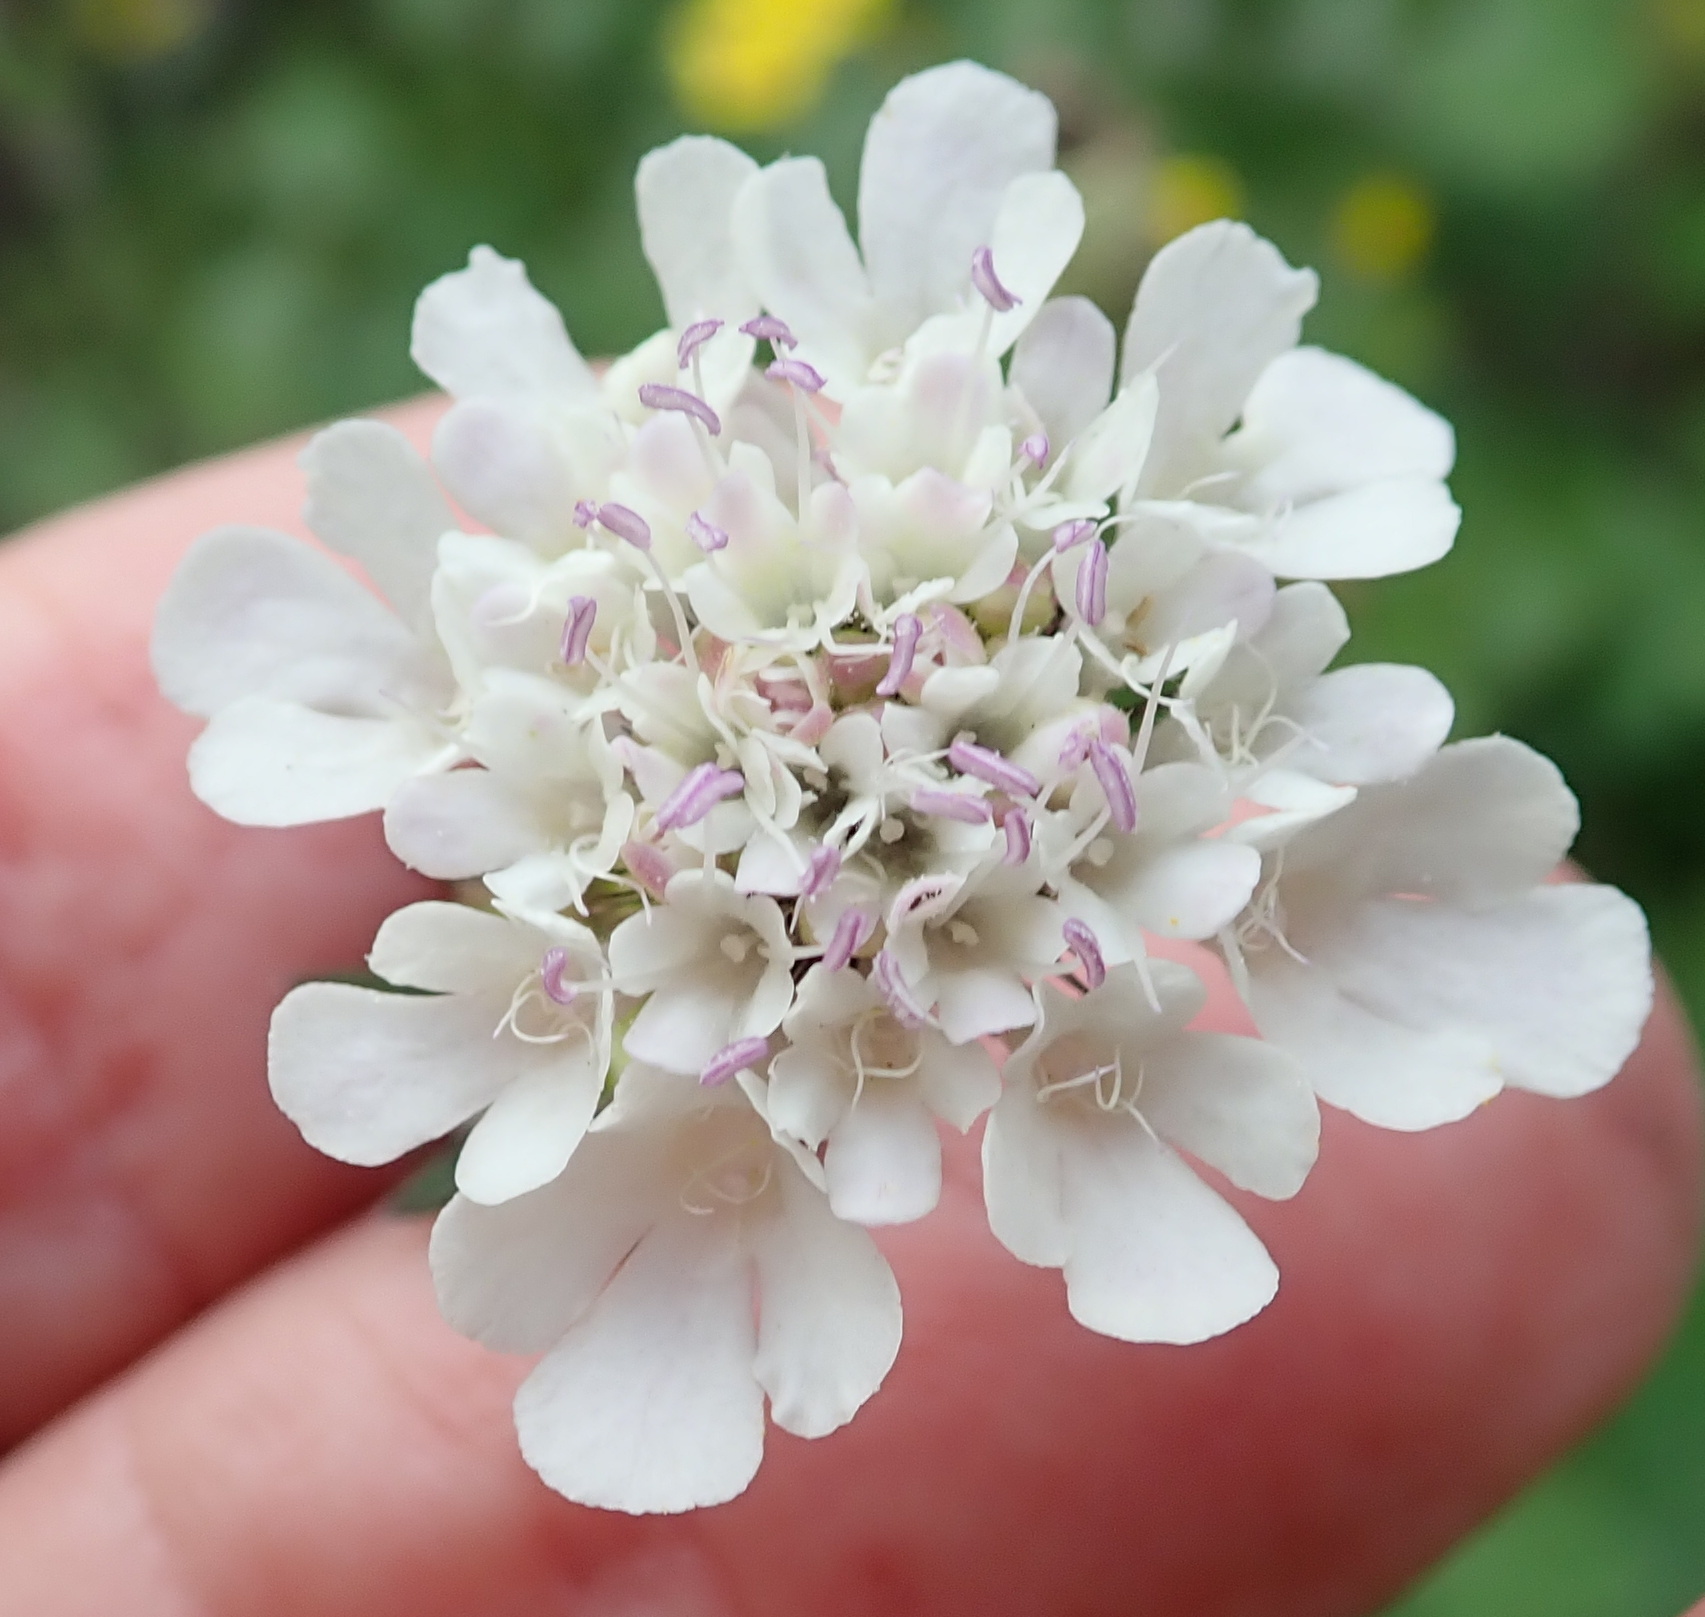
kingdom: Plantae
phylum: Tracheophyta
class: Magnoliopsida
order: Dipsacales
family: Caprifoliaceae
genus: Scabiosa
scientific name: Scabiosa columbaria
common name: Small scabious
